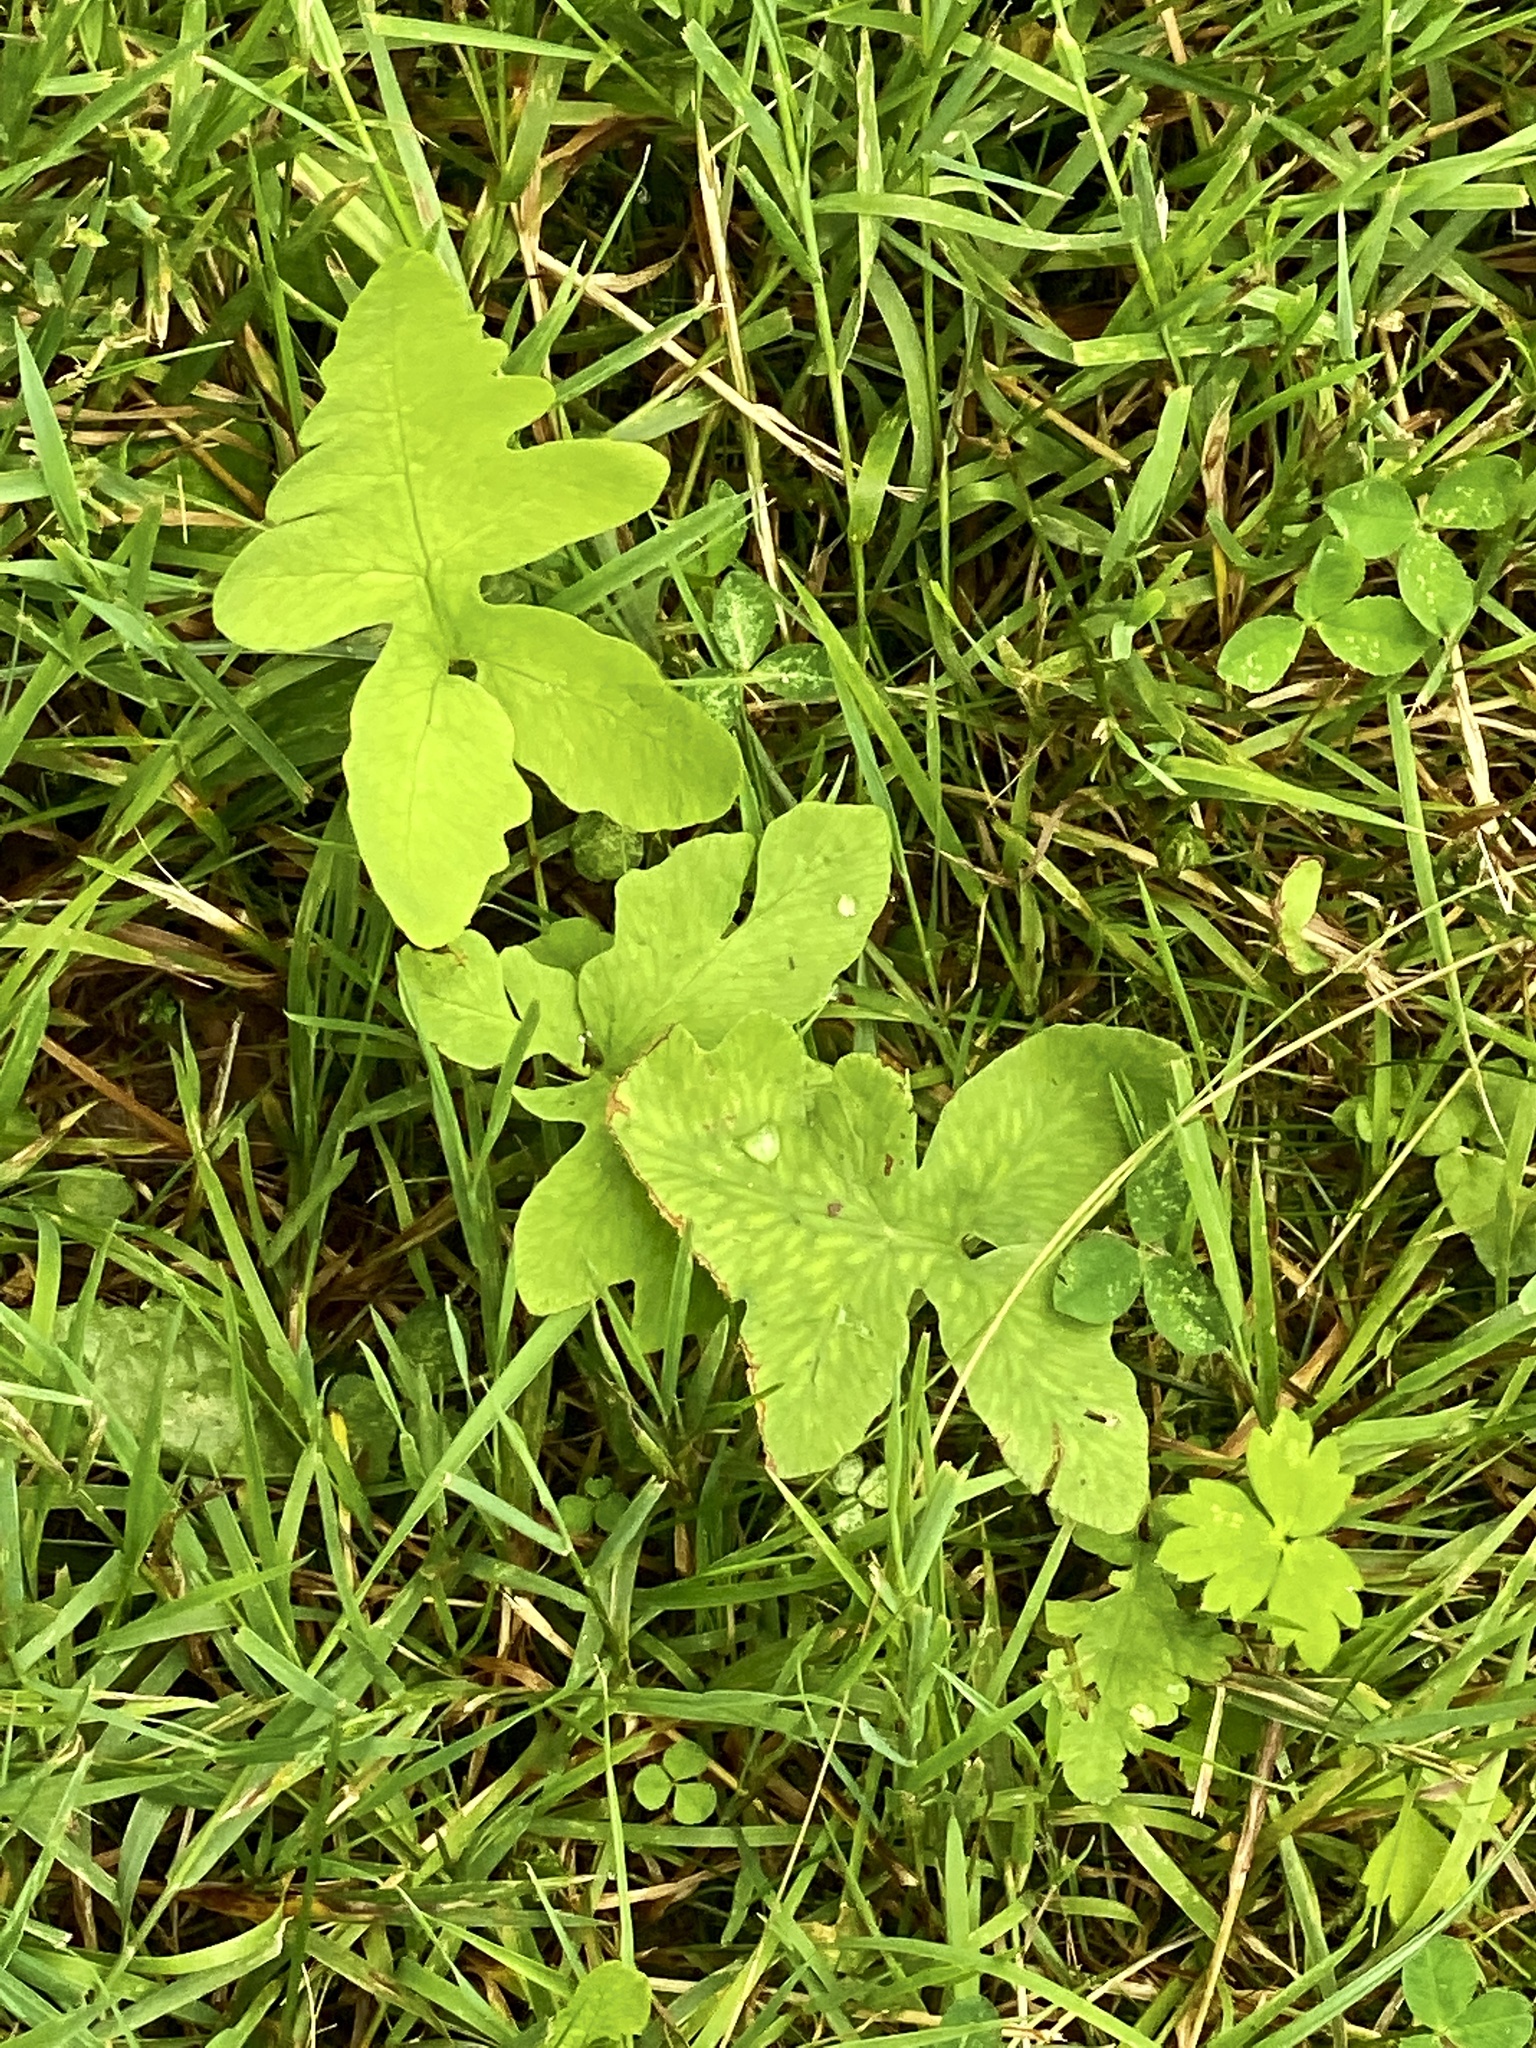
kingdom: Plantae
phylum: Tracheophyta
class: Polypodiopsida
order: Polypodiales
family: Onocleaceae
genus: Onoclea
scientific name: Onoclea sensibilis
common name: Sensitive fern
